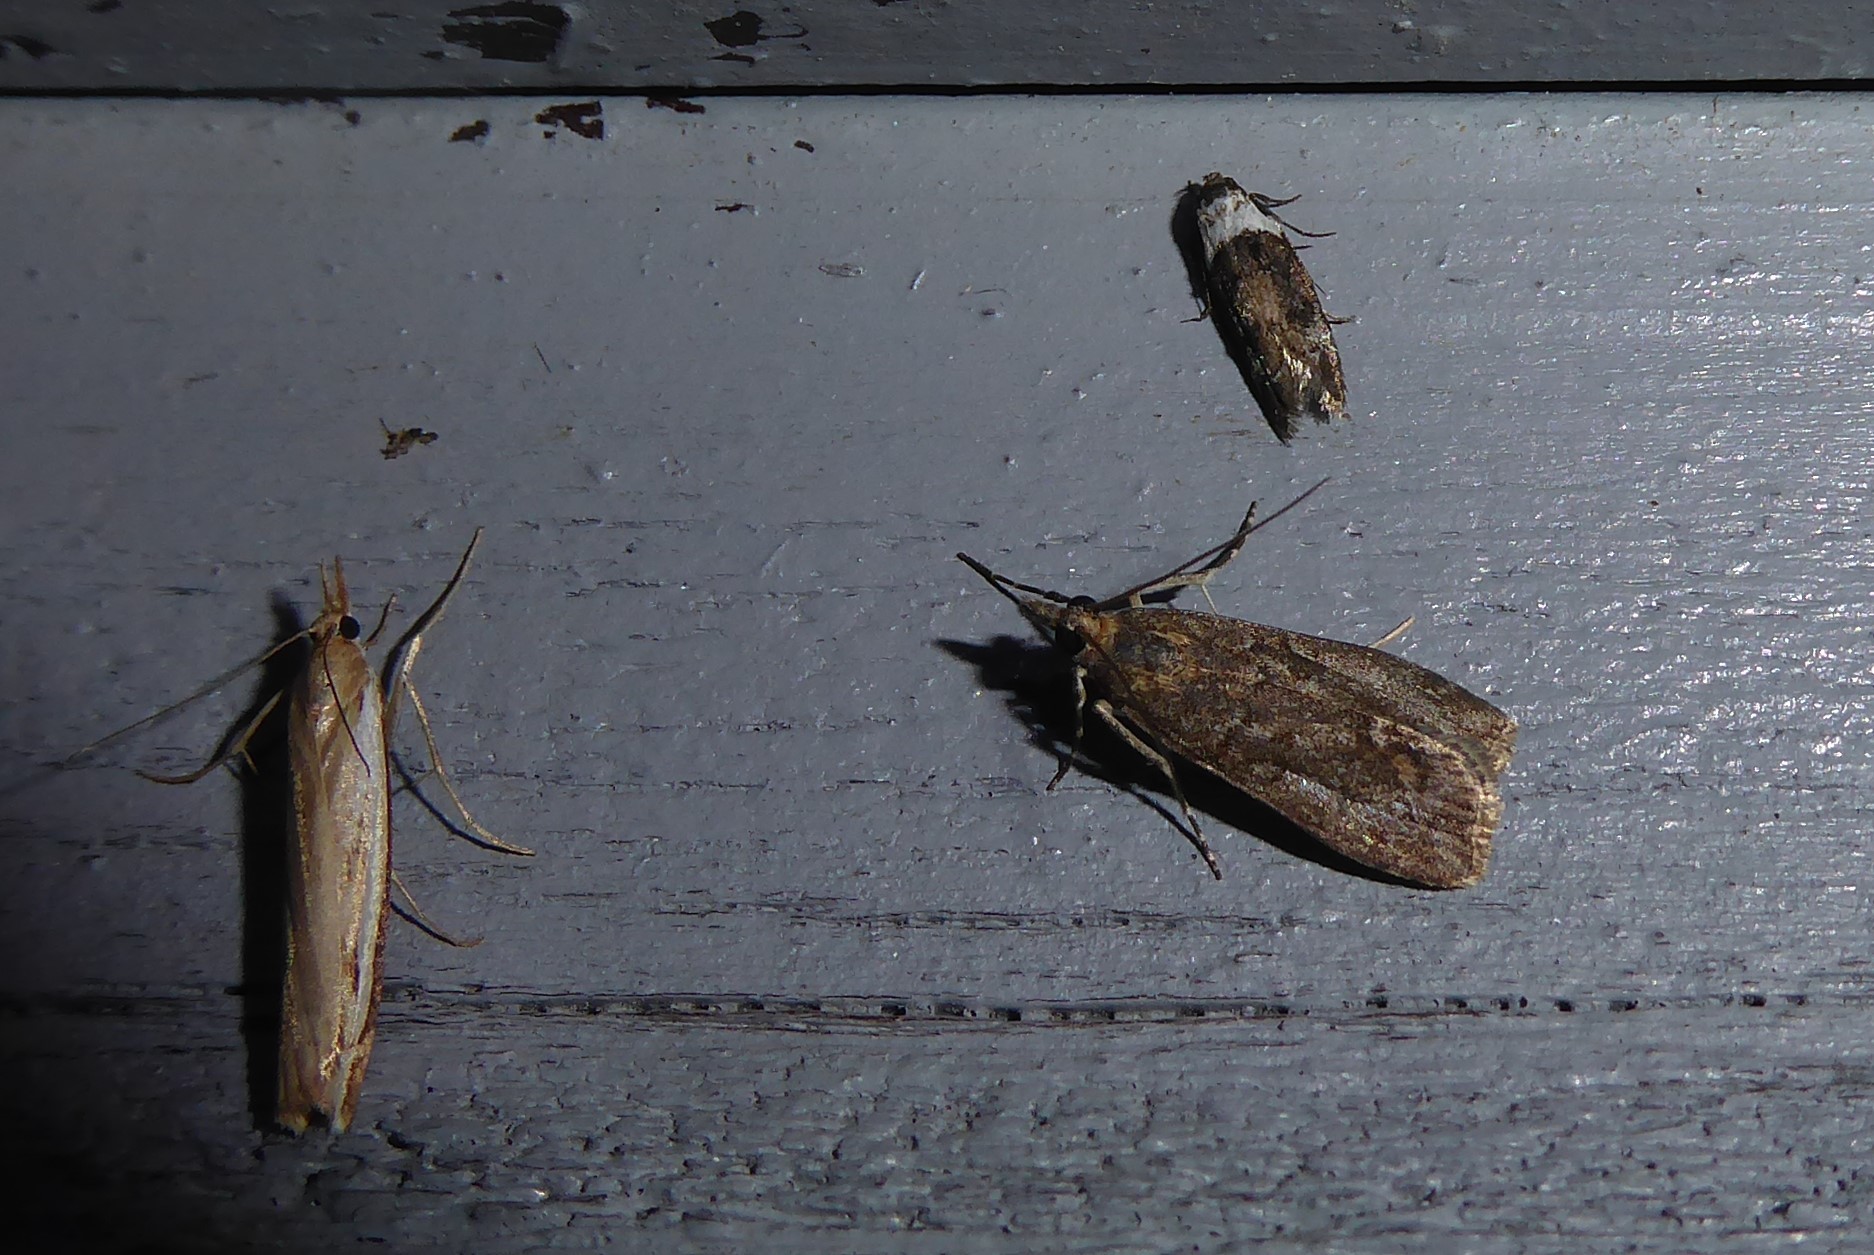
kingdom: Animalia
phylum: Arthropoda
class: Insecta
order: Lepidoptera
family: Oecophoridae
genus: Trachypepla
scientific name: Trachypepla conspicuella
